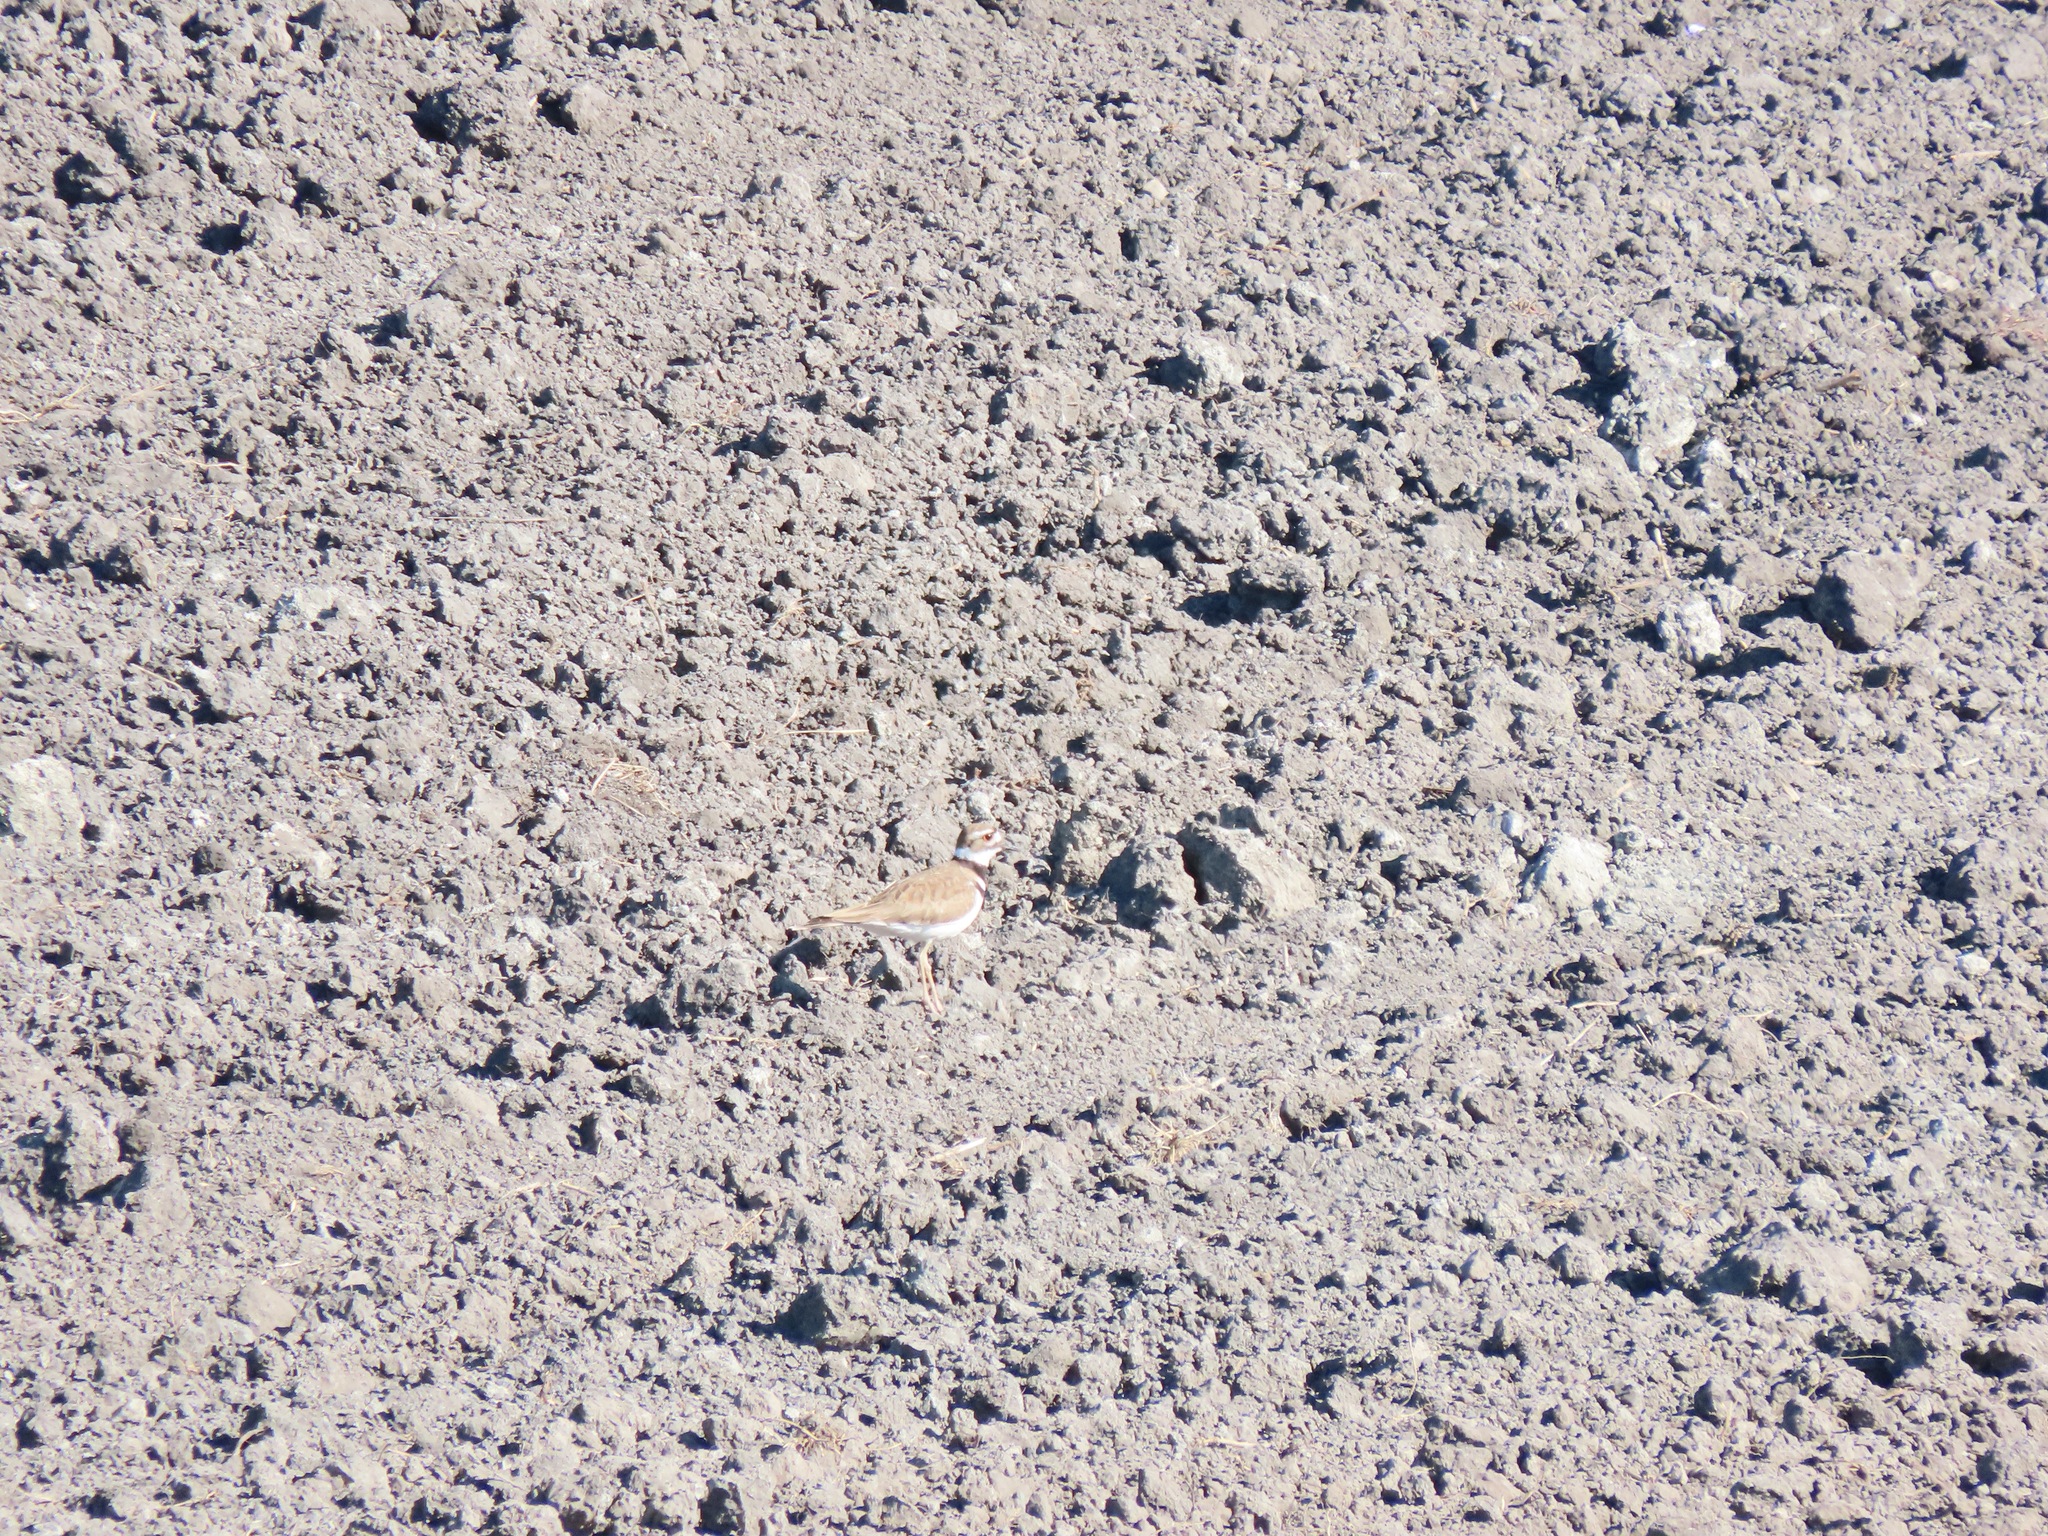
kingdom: Animalia
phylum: Chordata
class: Aves
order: Charadriiformes
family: Charadriidae
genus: Charadrius
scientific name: Charadrius vociferus
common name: Killdeer
